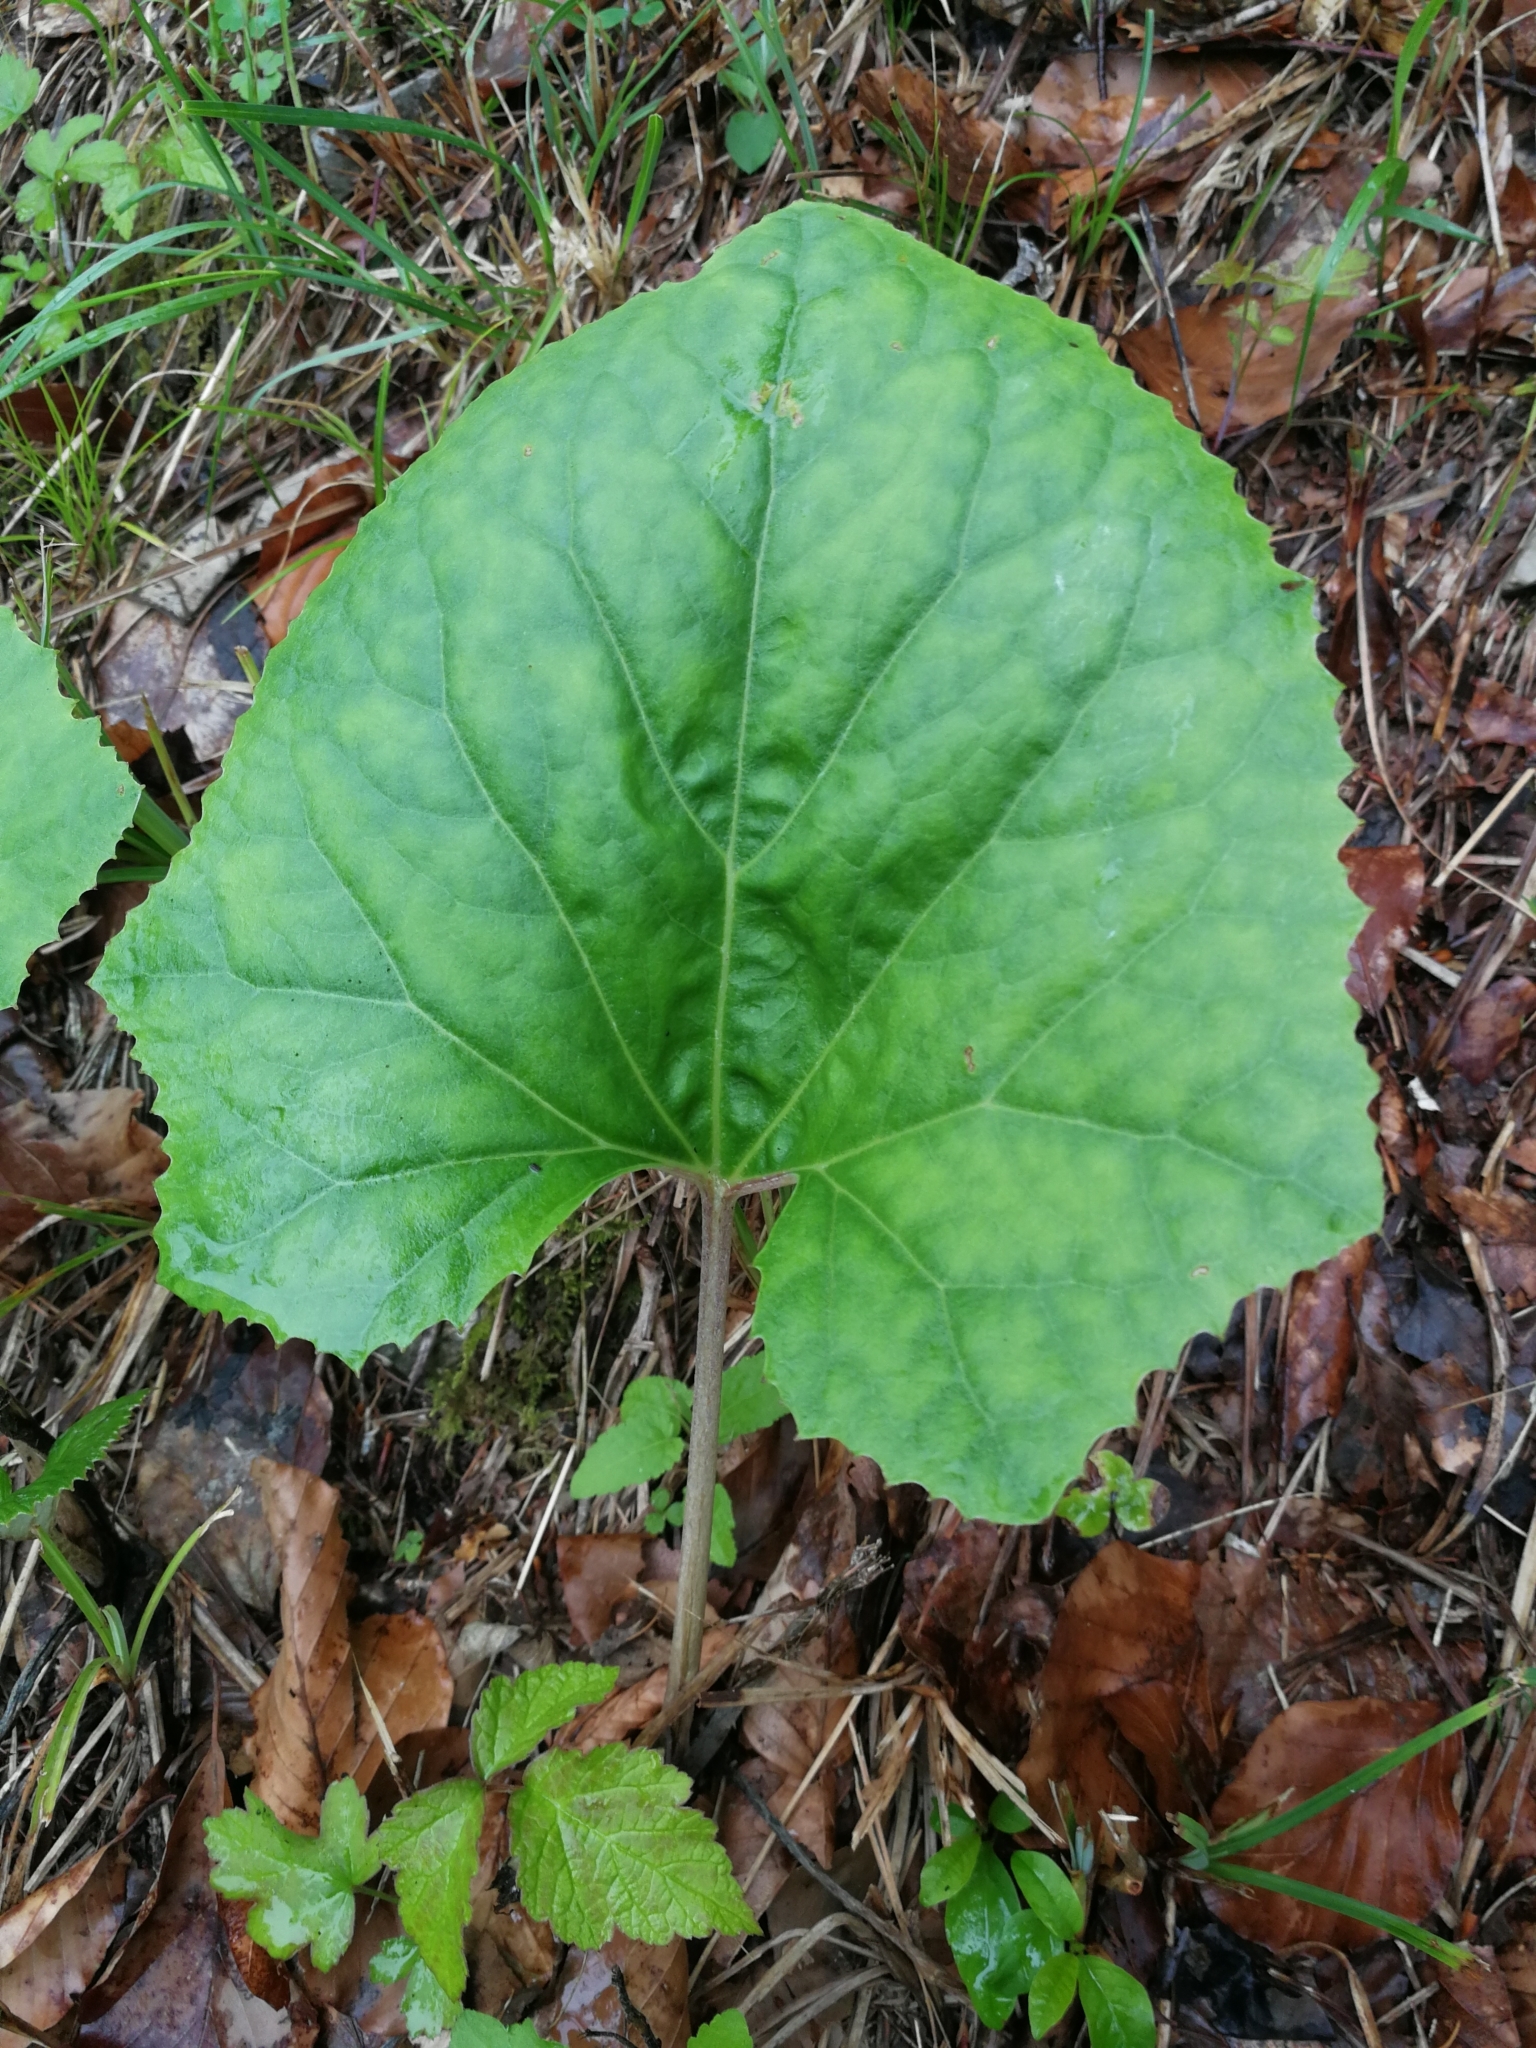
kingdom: Plantae
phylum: Tracheophyta
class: Magnoliopsida
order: Asterales
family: Asteraceae
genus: Tussilago
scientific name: Tussilago farfara
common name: Coltsfoot
